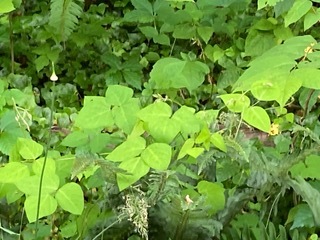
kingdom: Plantae
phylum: Tracheophyta
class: Magnoliopsida
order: Fabales
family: Fabaceae
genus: Amphicarpaea
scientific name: Amphicarpaea bracteata
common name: American hog peanut
